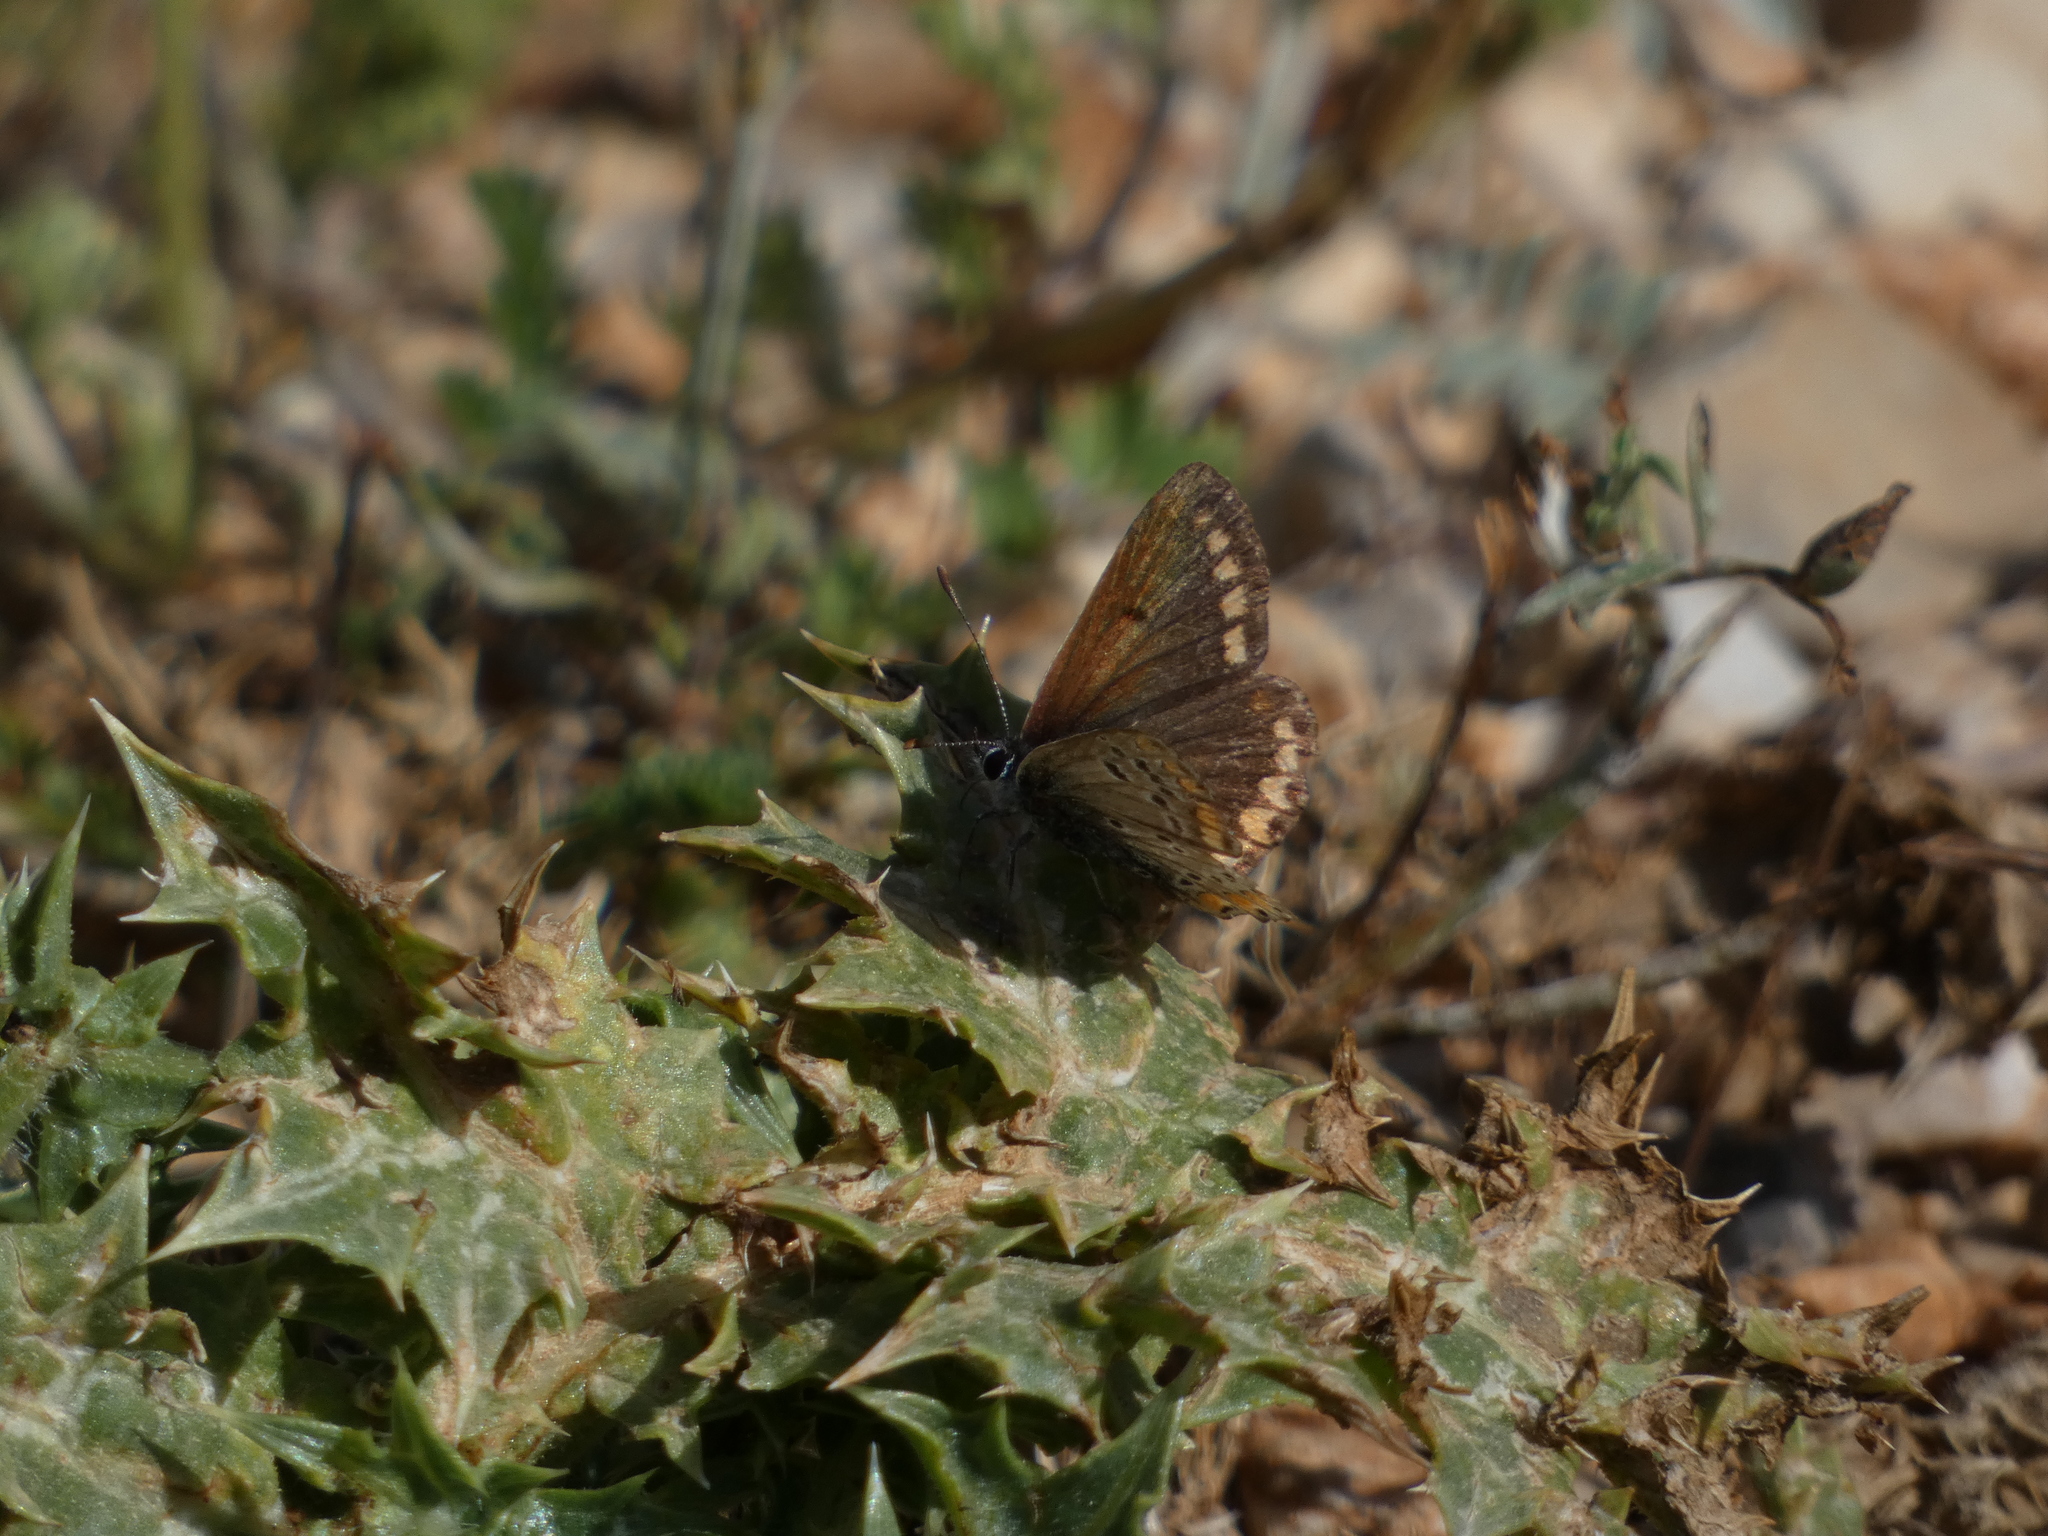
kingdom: Animalia
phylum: Arthropoda
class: Insecta
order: Lepidoptera
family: Lycaenidae
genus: Aricia
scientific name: Aricia agestis
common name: Brown argus
